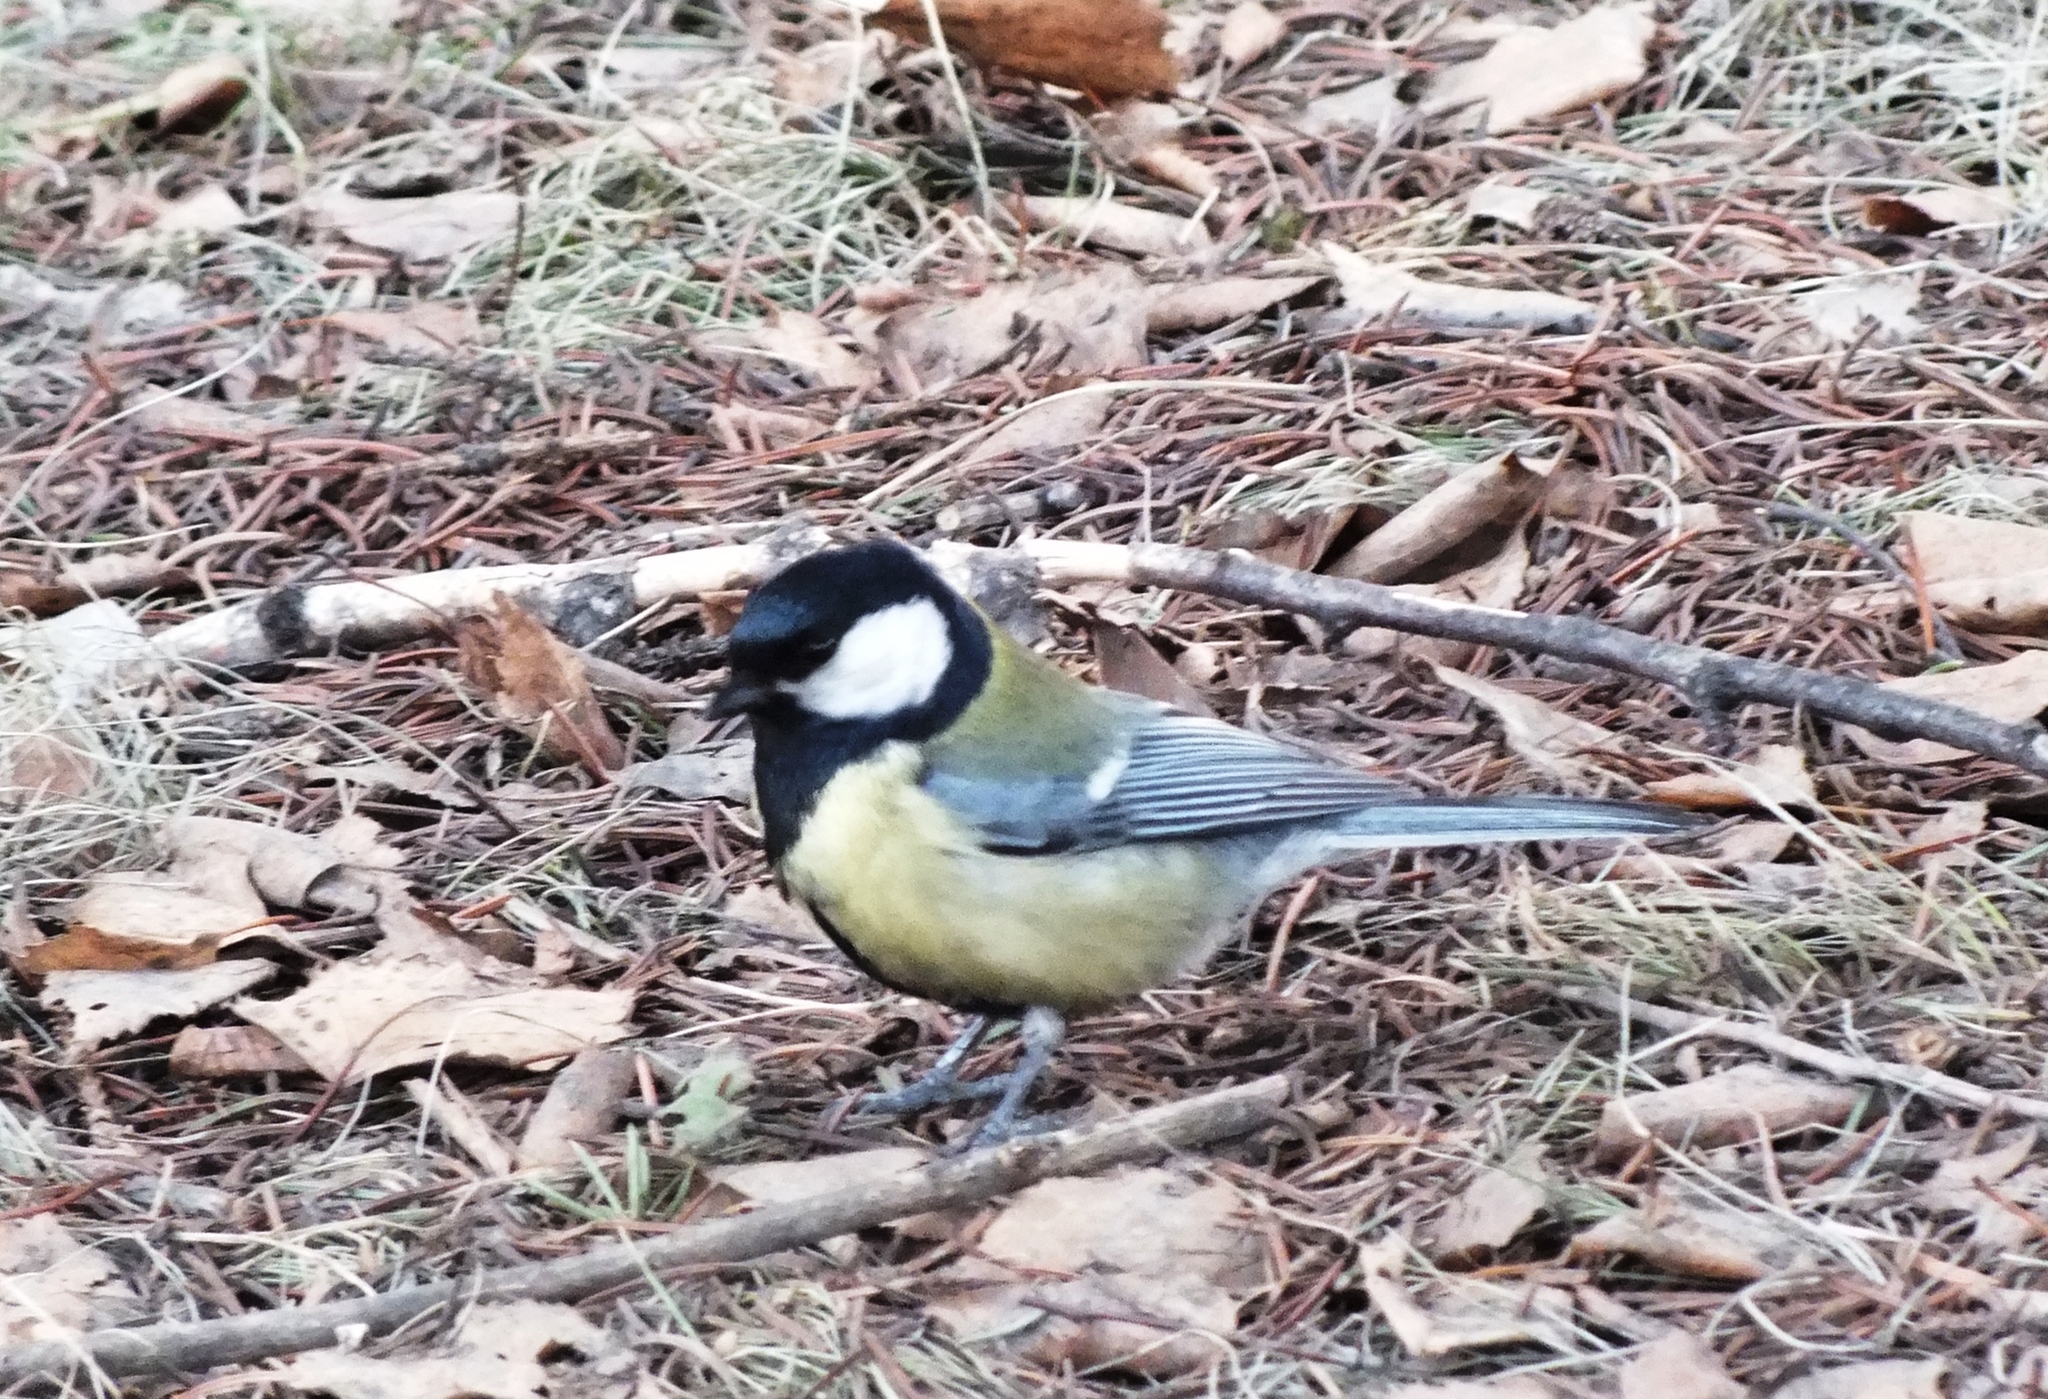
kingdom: Animalia
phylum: Chordata
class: Aves
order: Passeriformes
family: Paridae
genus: Parus
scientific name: Parus major
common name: Great tit
